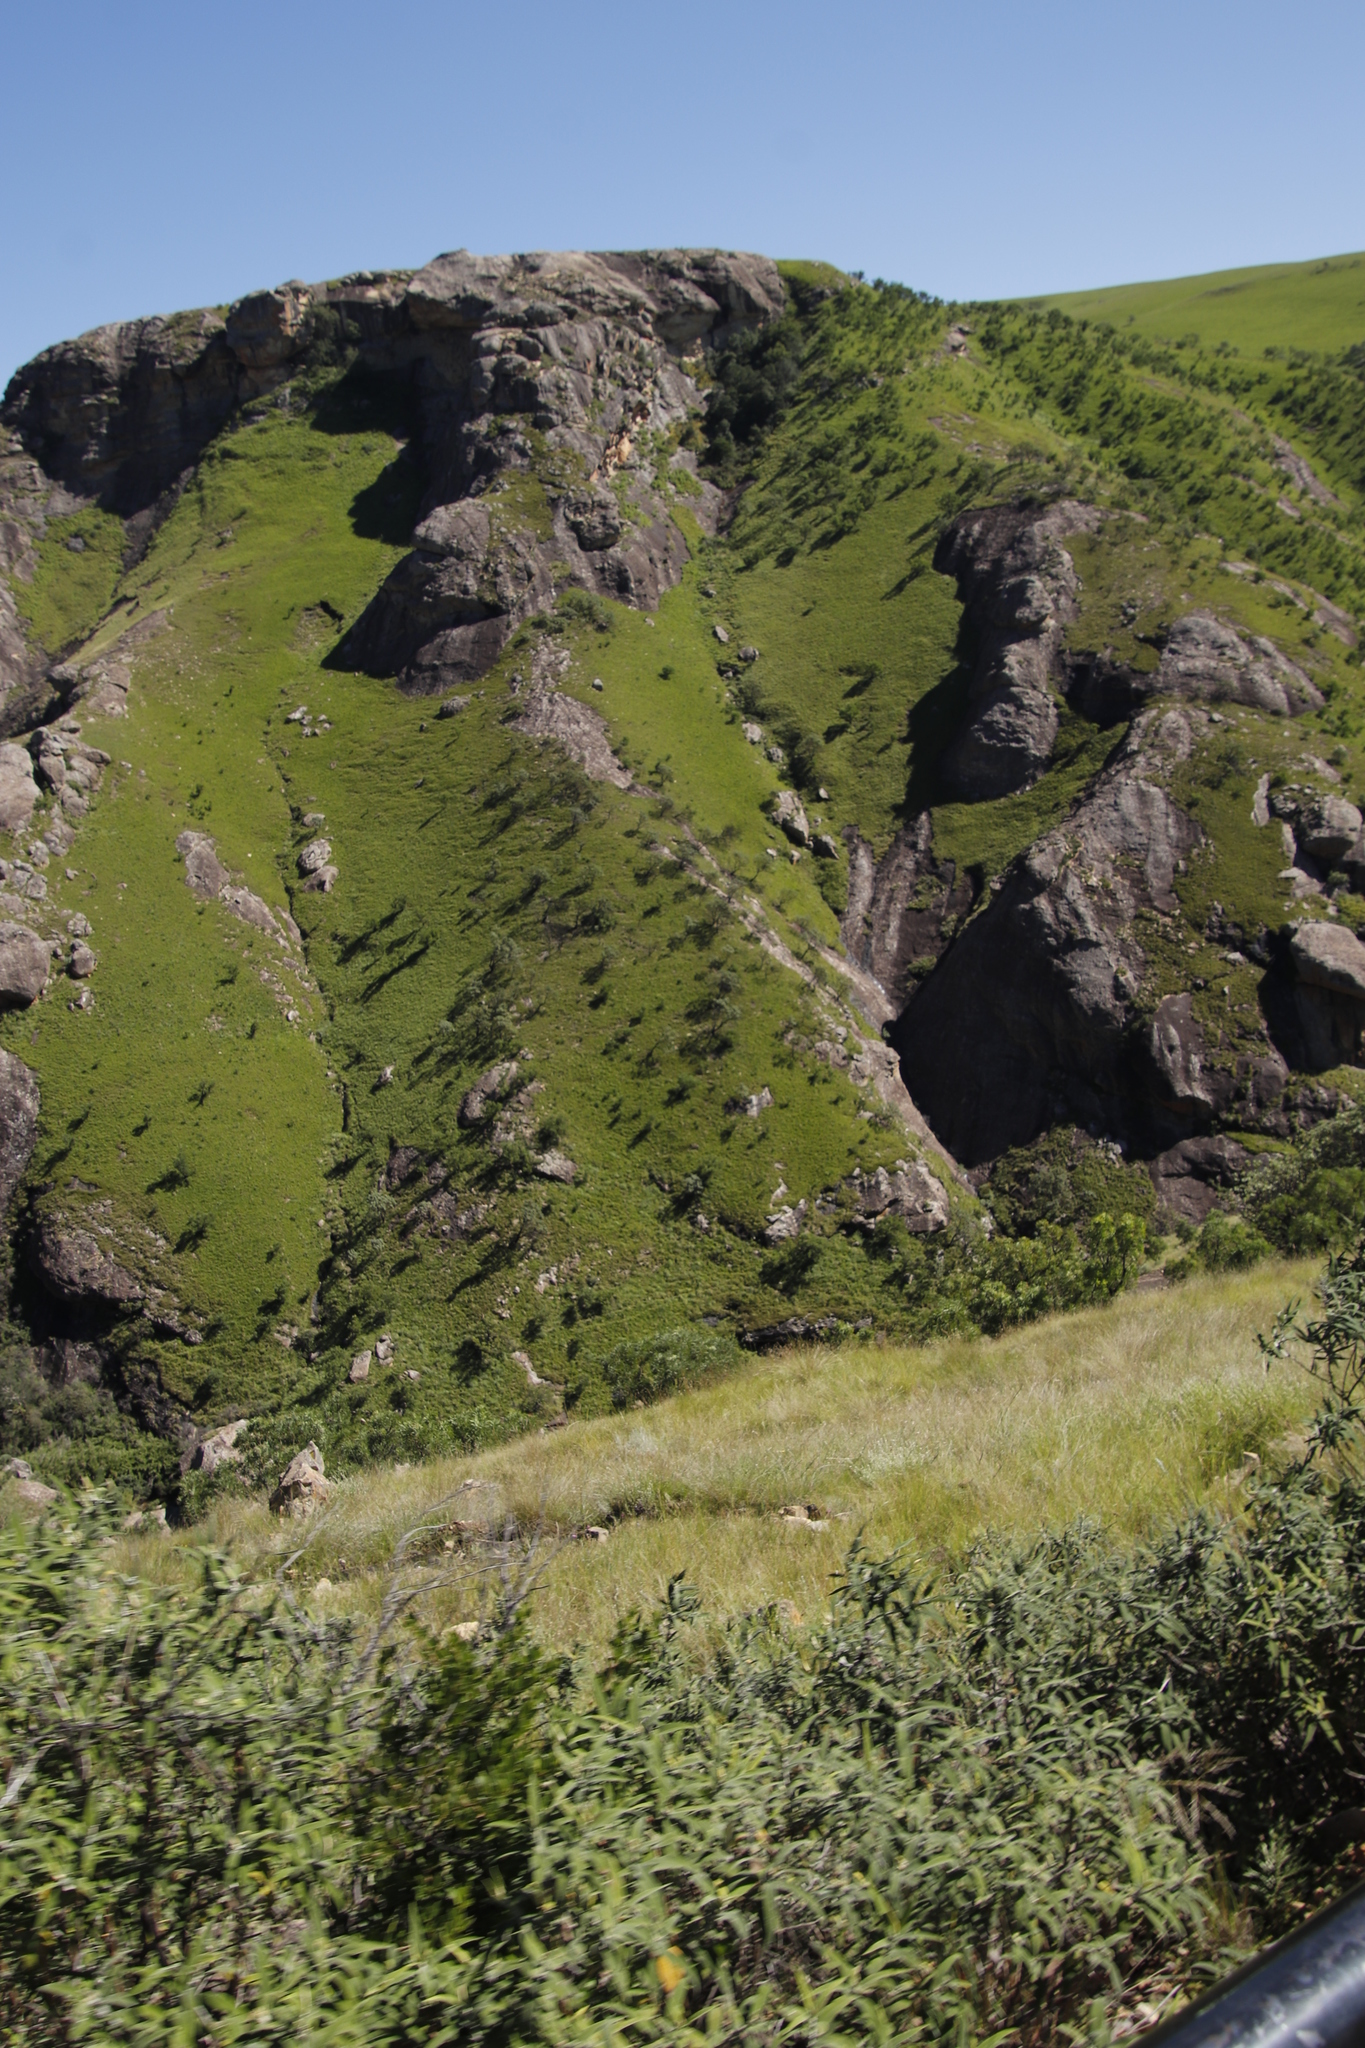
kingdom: Plantae
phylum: Tracheophyta
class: Magnoliopsida
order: Proteales
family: Proteaceae
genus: Protea
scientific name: Protea roupelliae
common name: Silver sugarbush
